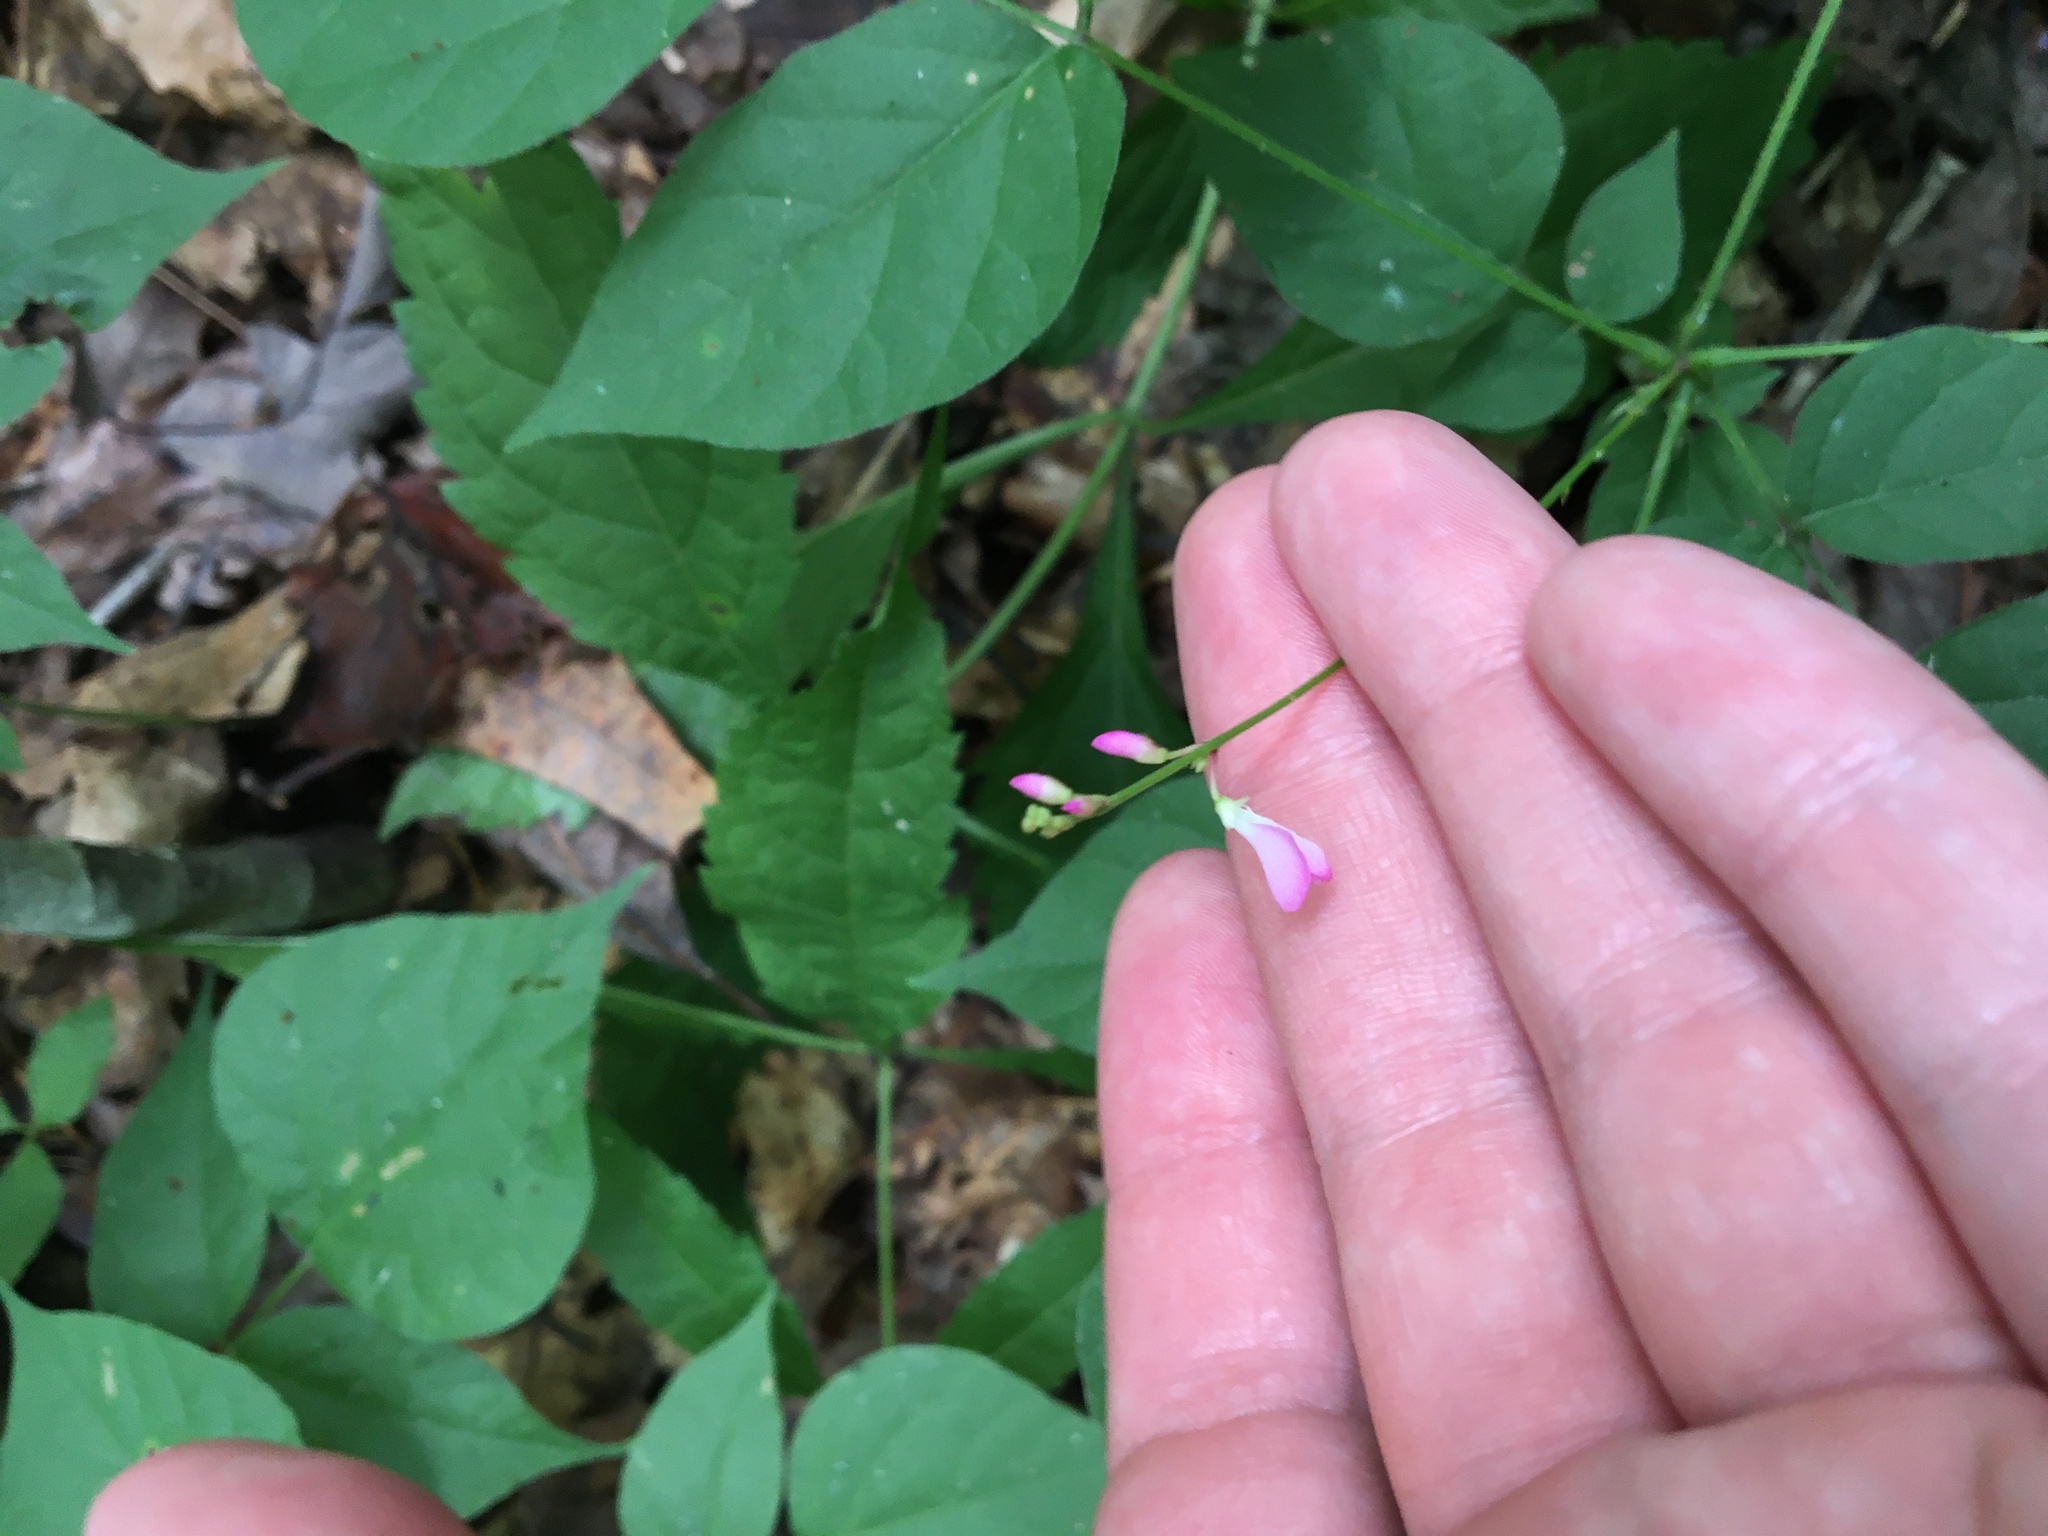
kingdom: Plantae
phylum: Tracheophyta
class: Magnoliopsida
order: Fabales
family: Fabaceae
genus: Hylodesmum
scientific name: Hylodesmum glutinosum
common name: Clustered-leaved tick-trefoil
